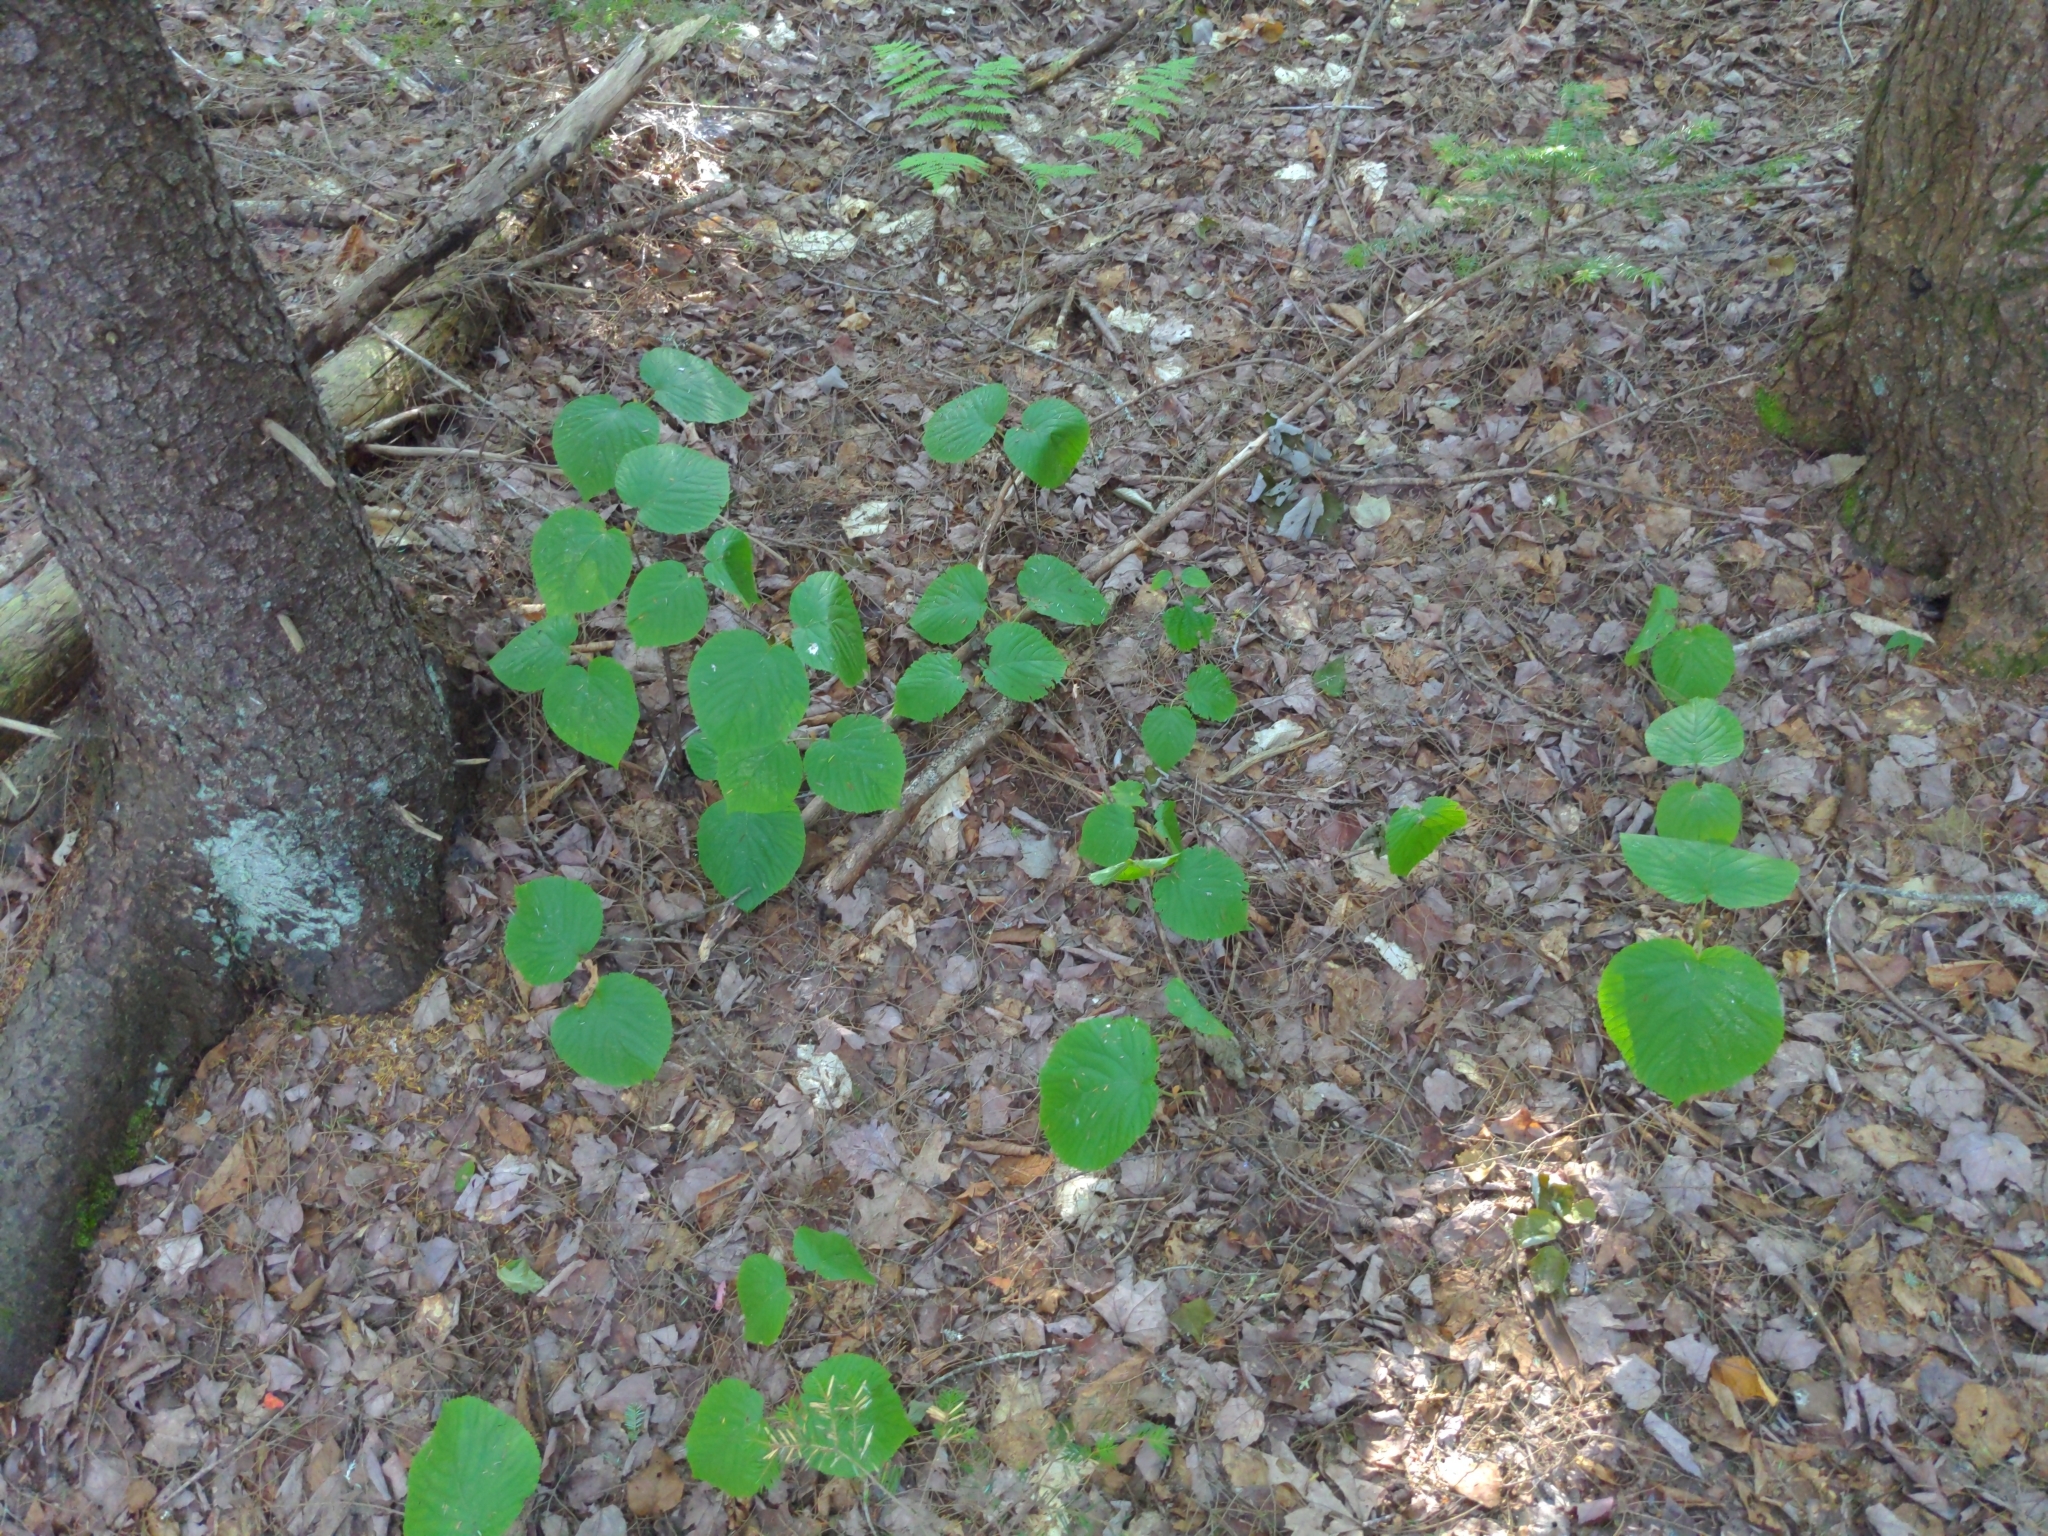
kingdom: Plantae
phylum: Tracheophyta
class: Magnoliopsida
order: Dipsacales
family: Viburnaceae
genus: Viburnum
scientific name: Viburnum lantanoides
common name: Hobblebush
